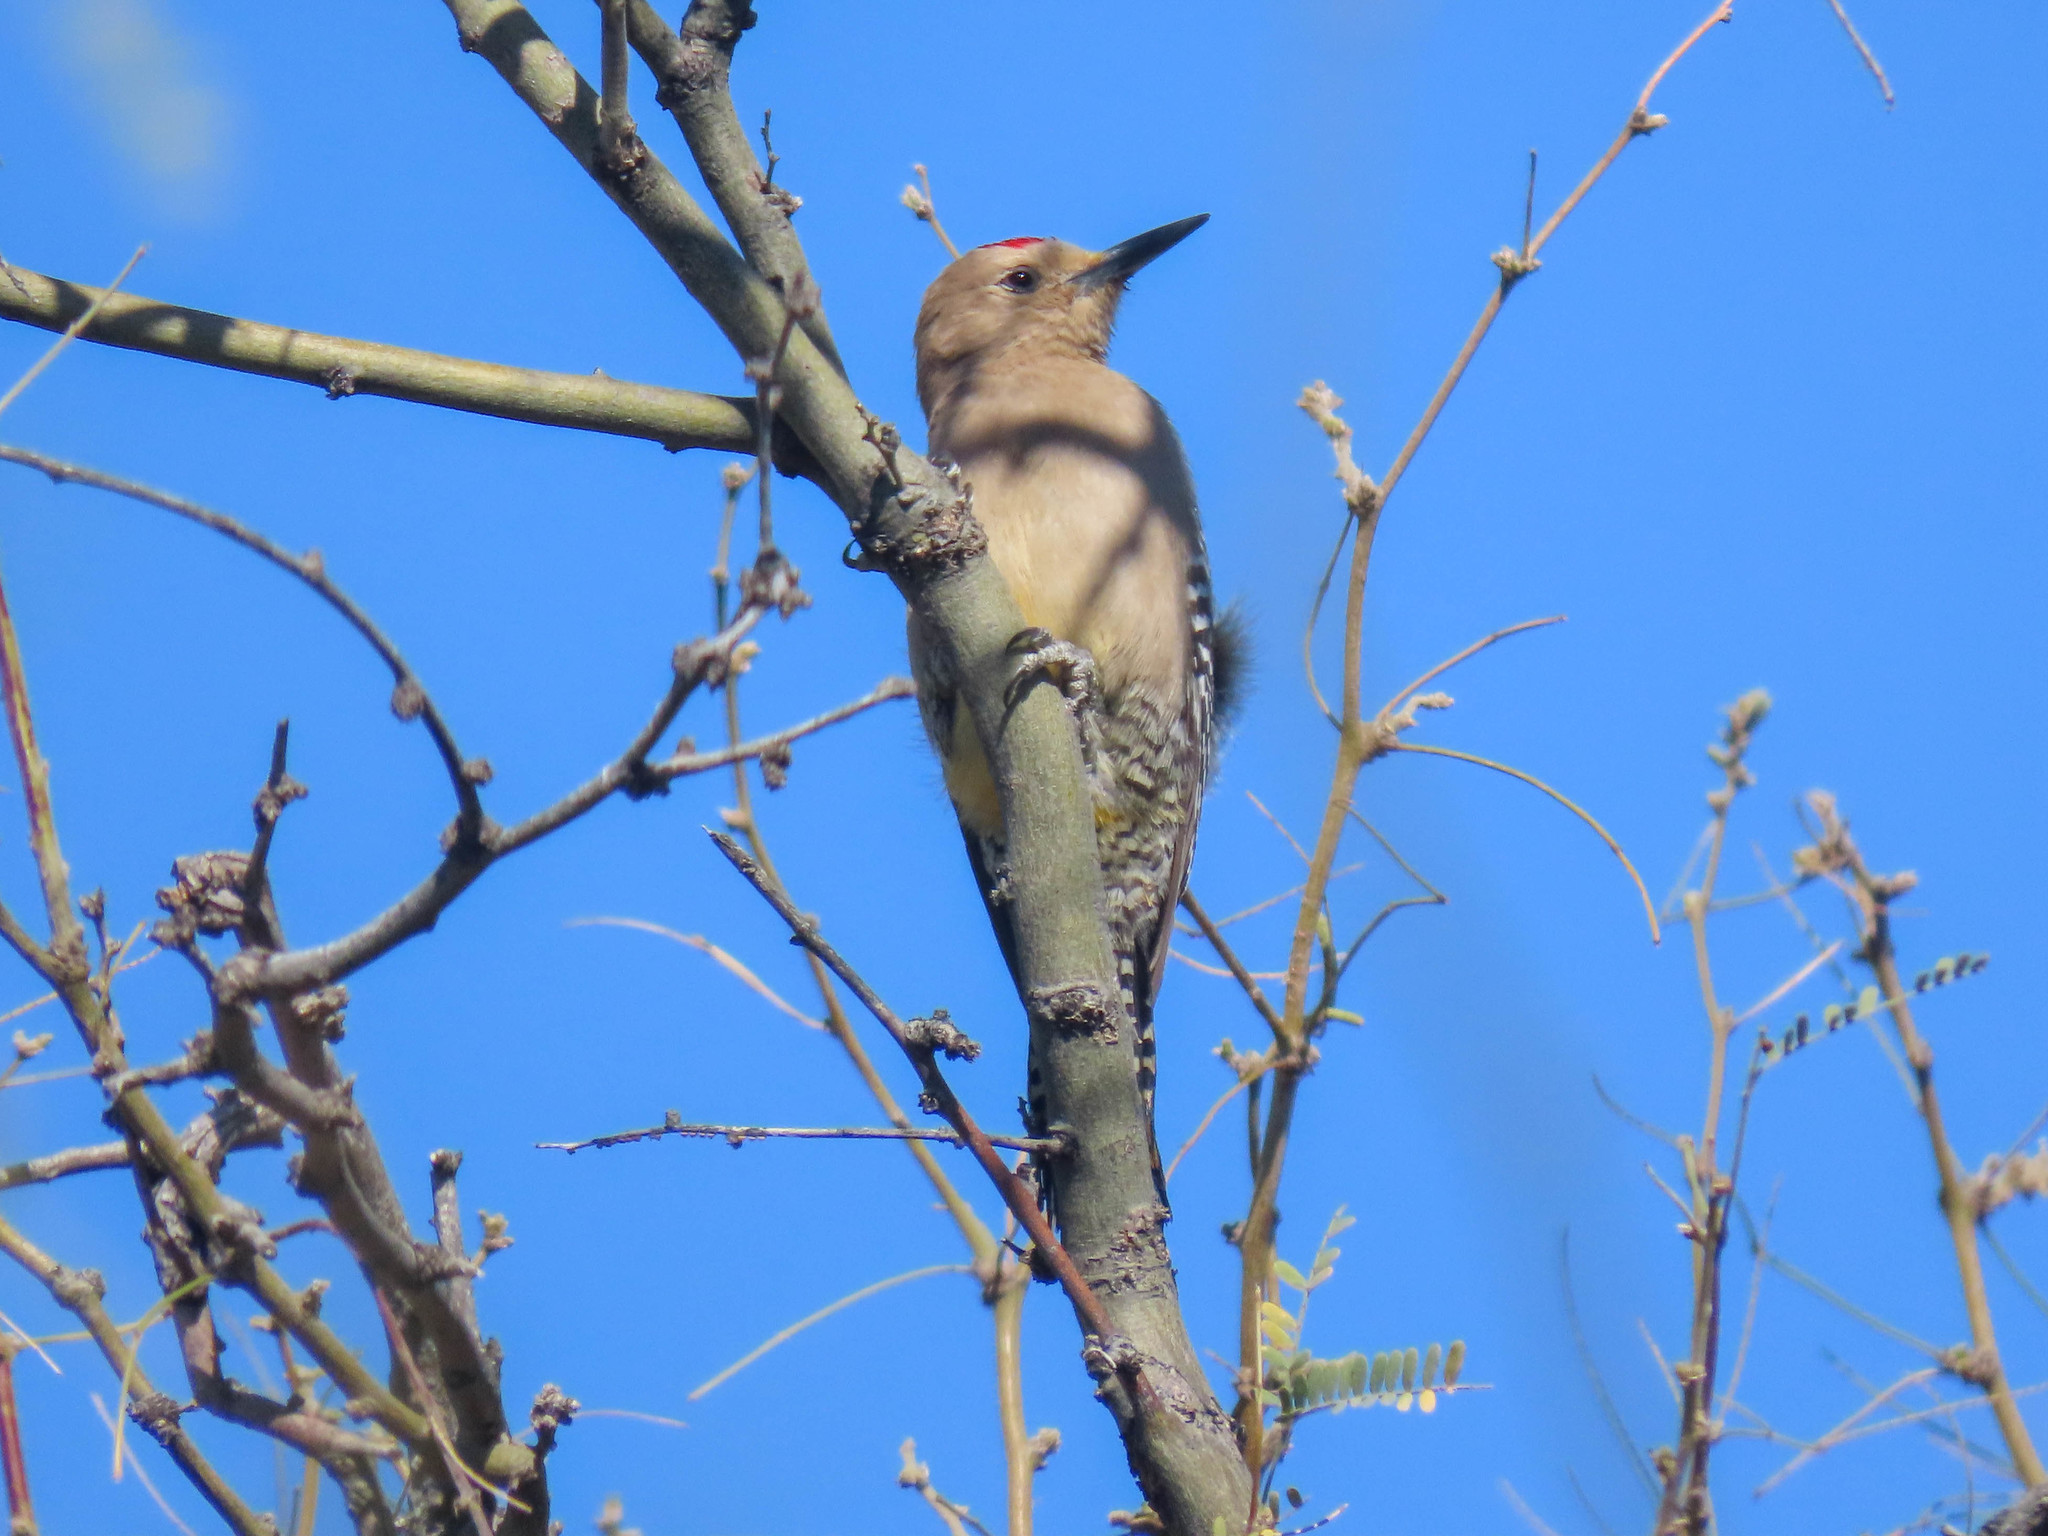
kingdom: Animalia
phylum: Chordata
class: Aves
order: Piciformes
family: Picidae
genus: Melanerpes
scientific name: Melanerpes uropygialis
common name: Gila woodpecker
